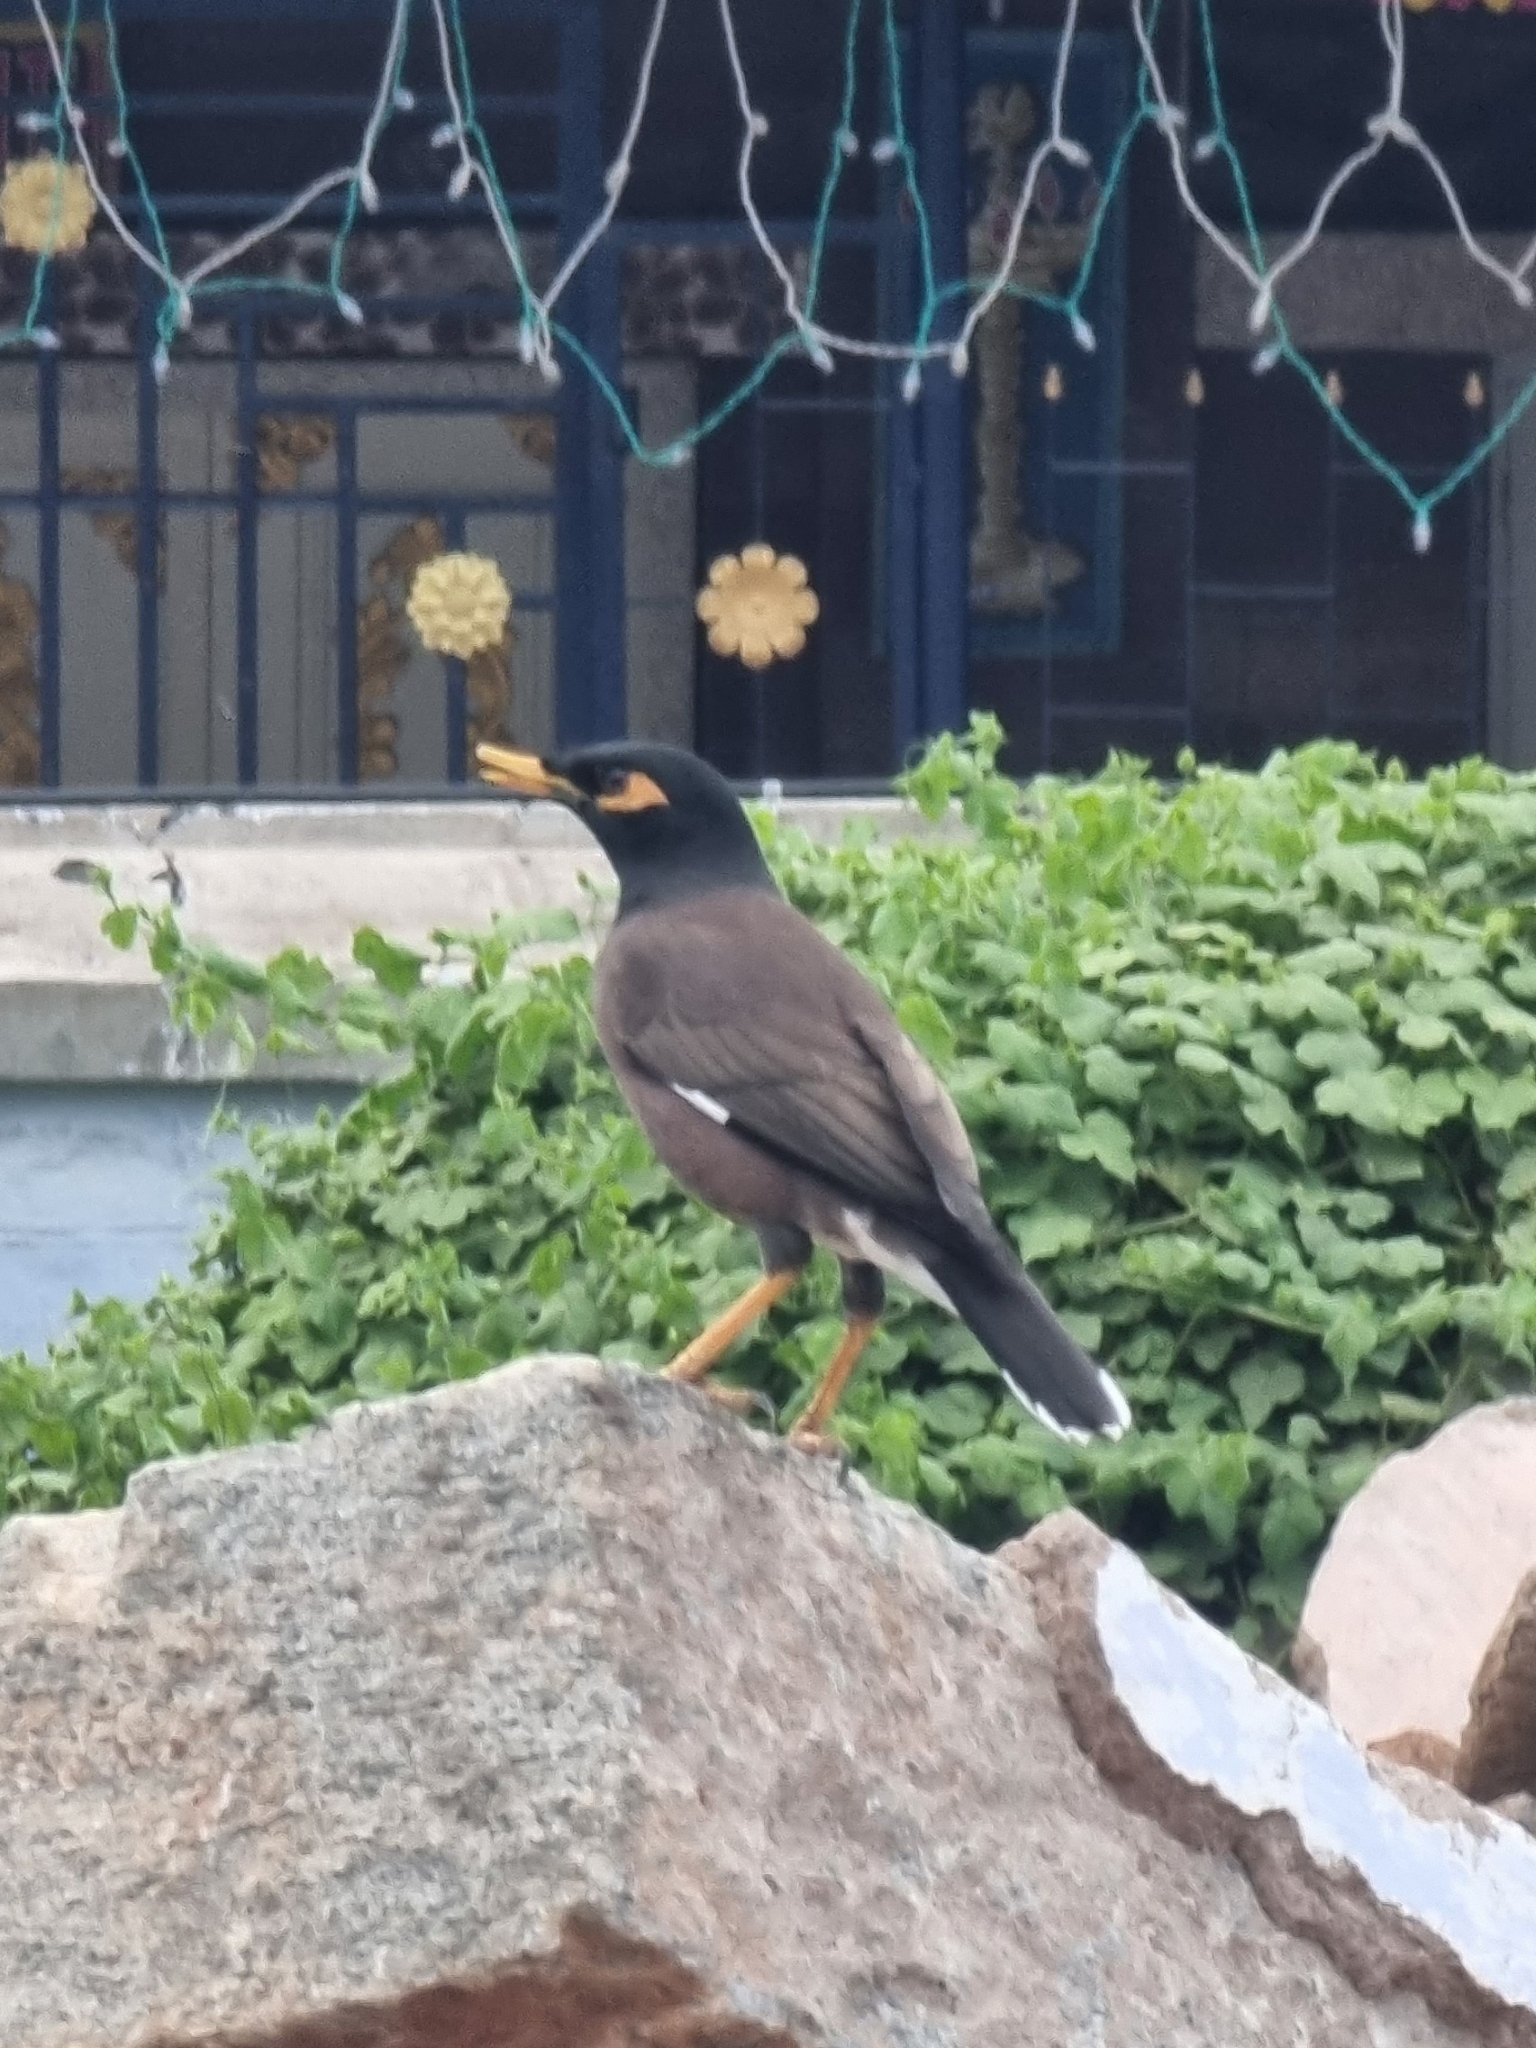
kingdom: Animalia
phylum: Chordata
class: Aves
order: Passeriformes
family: Sturnidae
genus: Acridotheres
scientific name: Acridotheres tristis
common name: Common myna
